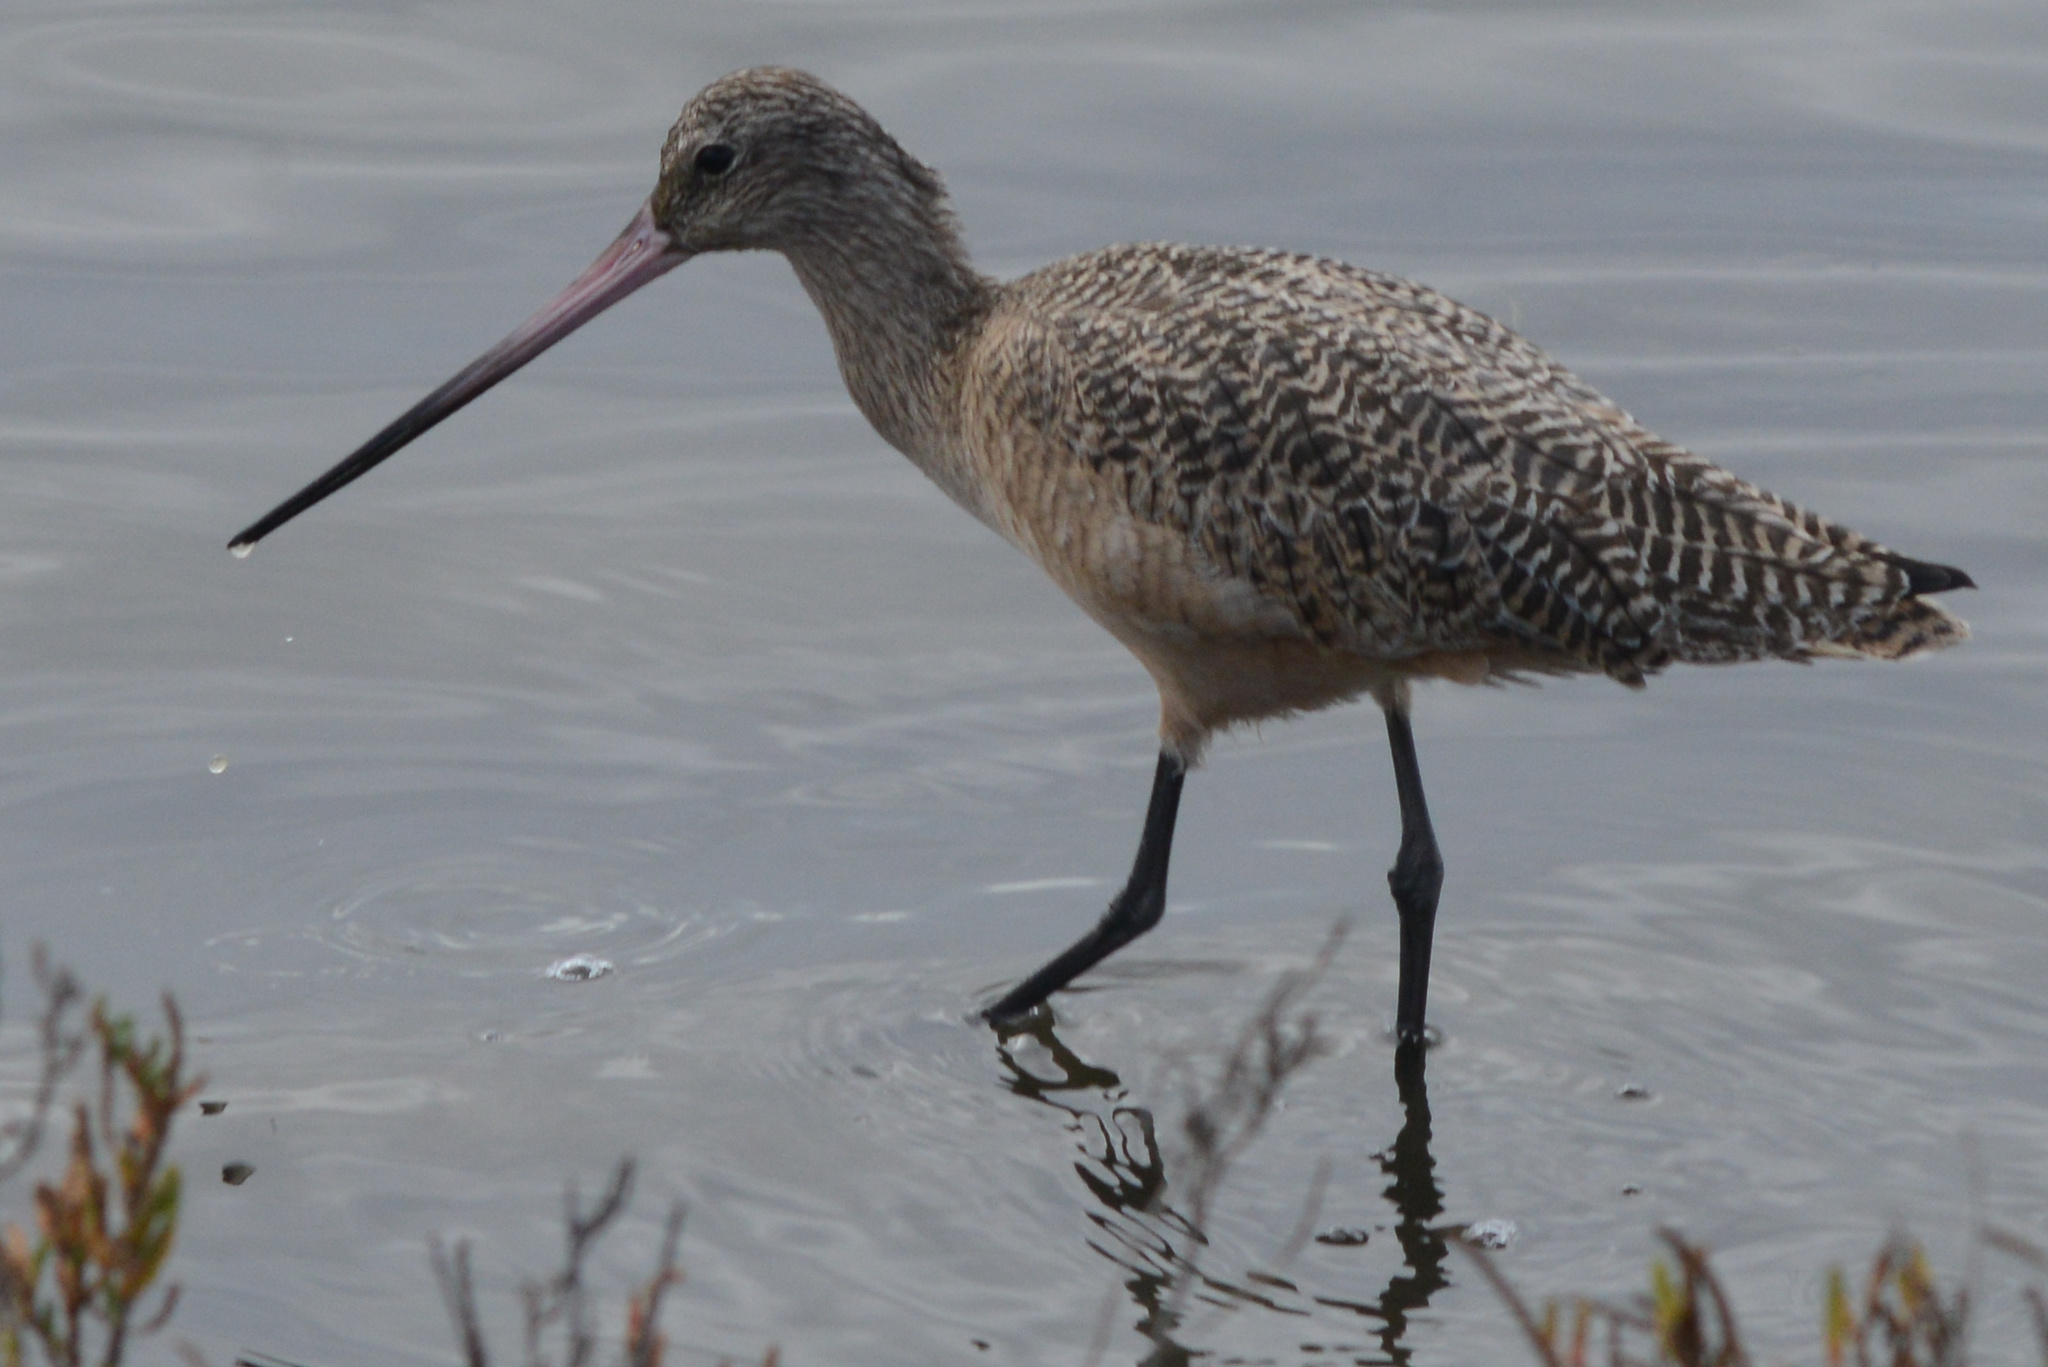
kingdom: Animalia
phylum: Chordata
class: Aves
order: Charadriiformes
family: Scolopacidae
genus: Limosa
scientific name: Limosa fedoa
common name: Marbled godwit
